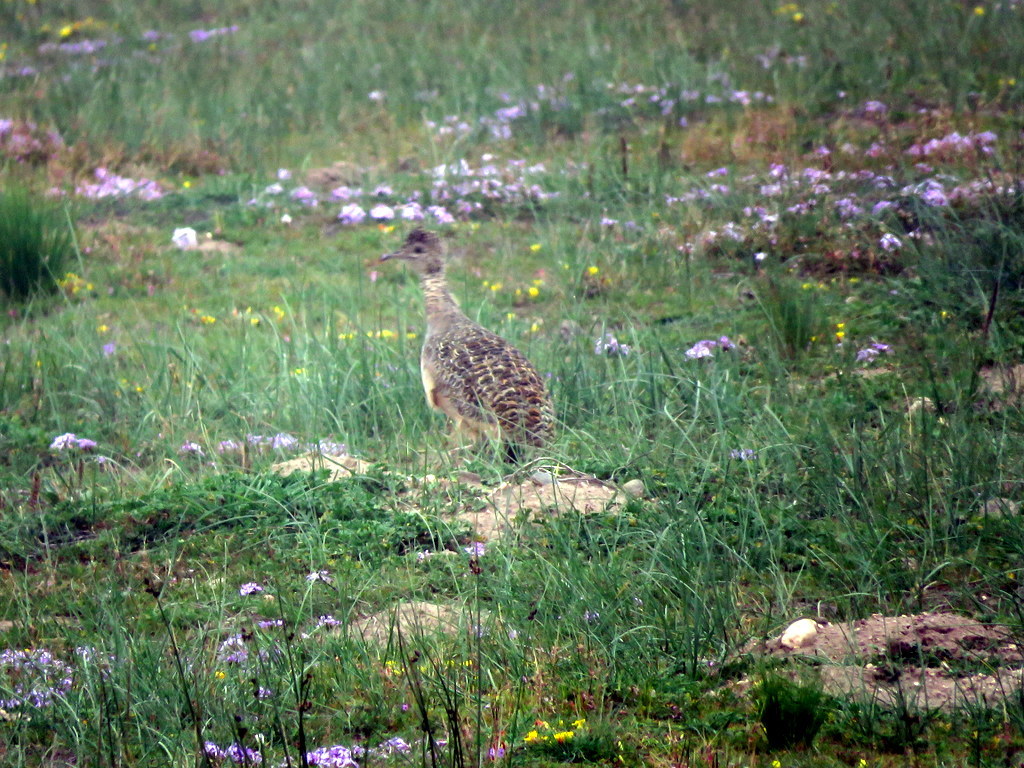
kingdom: Animalia
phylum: Chordata
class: Aves
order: Tinamiformes
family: Tinamidae
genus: Nothoprocta
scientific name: Nothoprocta ornata
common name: Ornate tinamou
